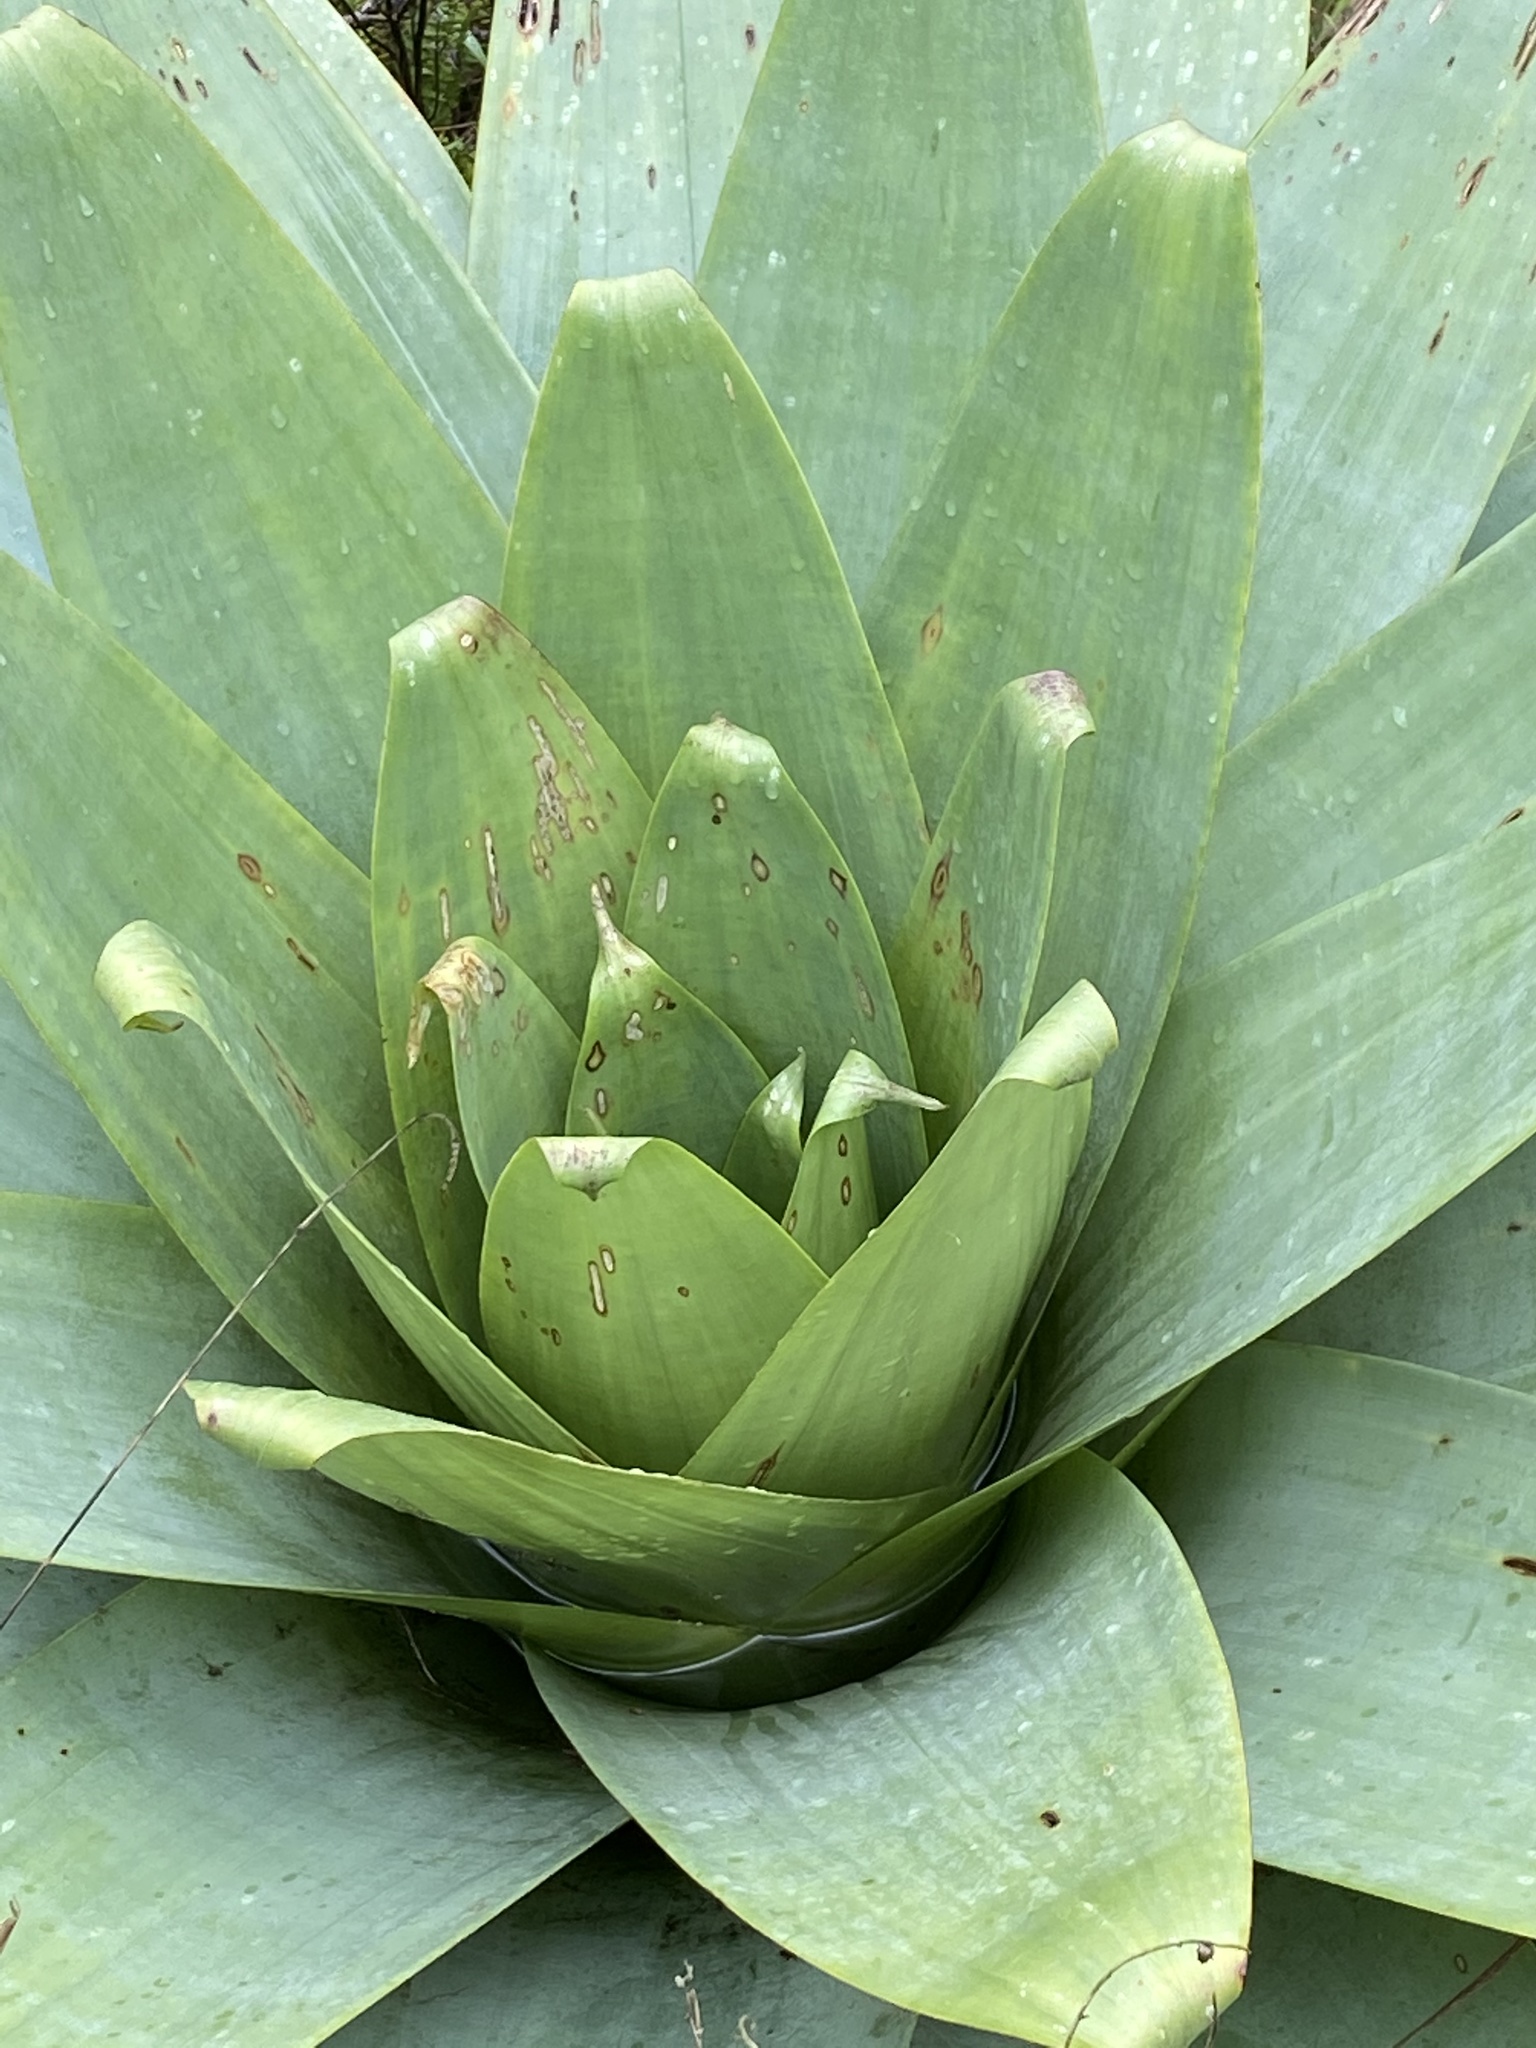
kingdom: Plantae
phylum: Tracheophyta
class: Liliopsida
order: Poales
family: Bromeliaceae
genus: Alcantarea
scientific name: Alcantarea imperialis
